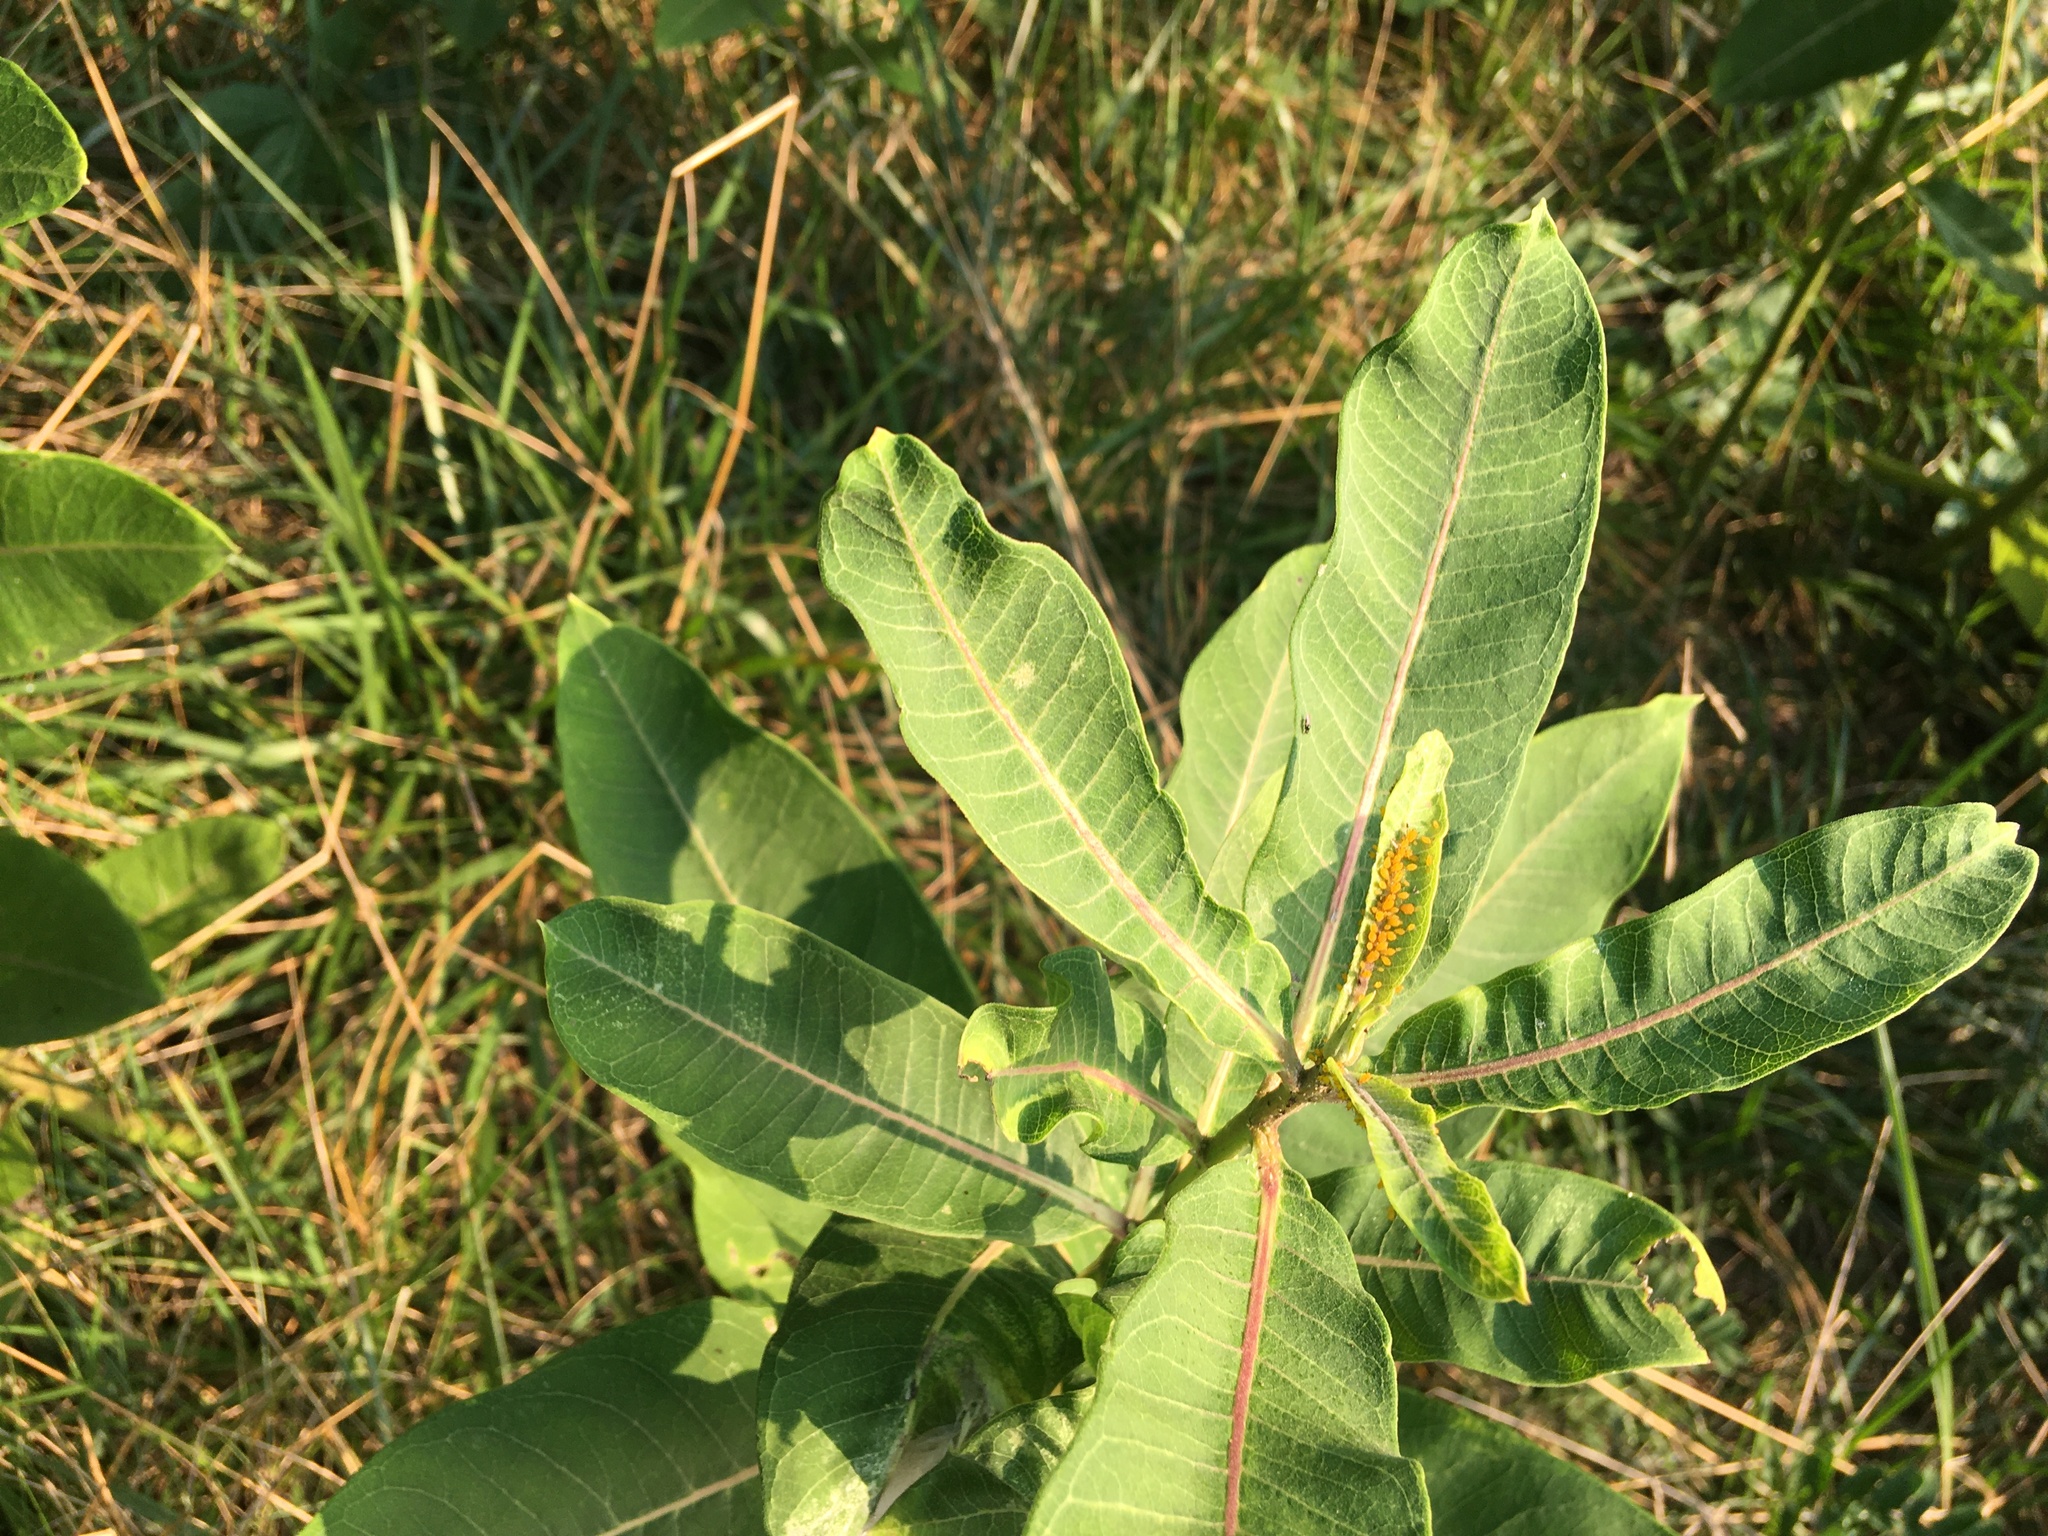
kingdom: Plantae
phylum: Tracheophyta
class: Magnoliopsida
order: Gentianales
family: Apocynaceae
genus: Asclepias
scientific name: Asclepias syriaca
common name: Common milkweed
